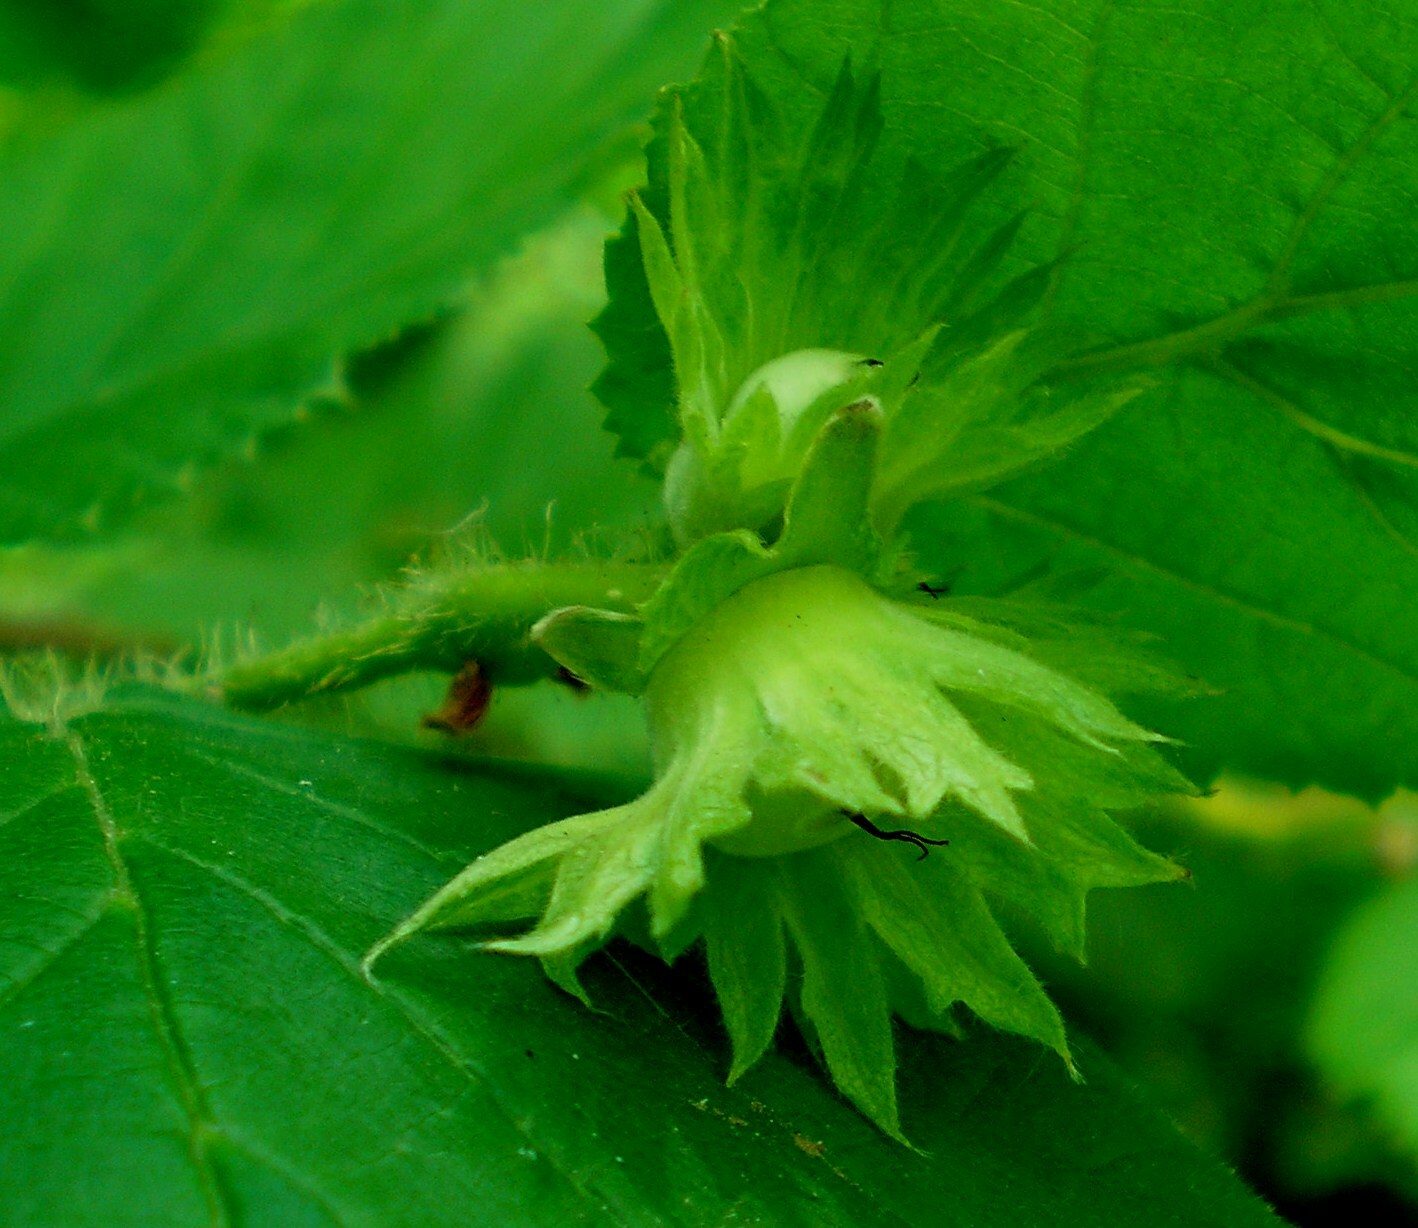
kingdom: Plantae
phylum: Tracheophyta
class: Magnoliopsida
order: Fagales
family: Betulaceae
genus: Corylus
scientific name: Corylus avellana
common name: European hazel
